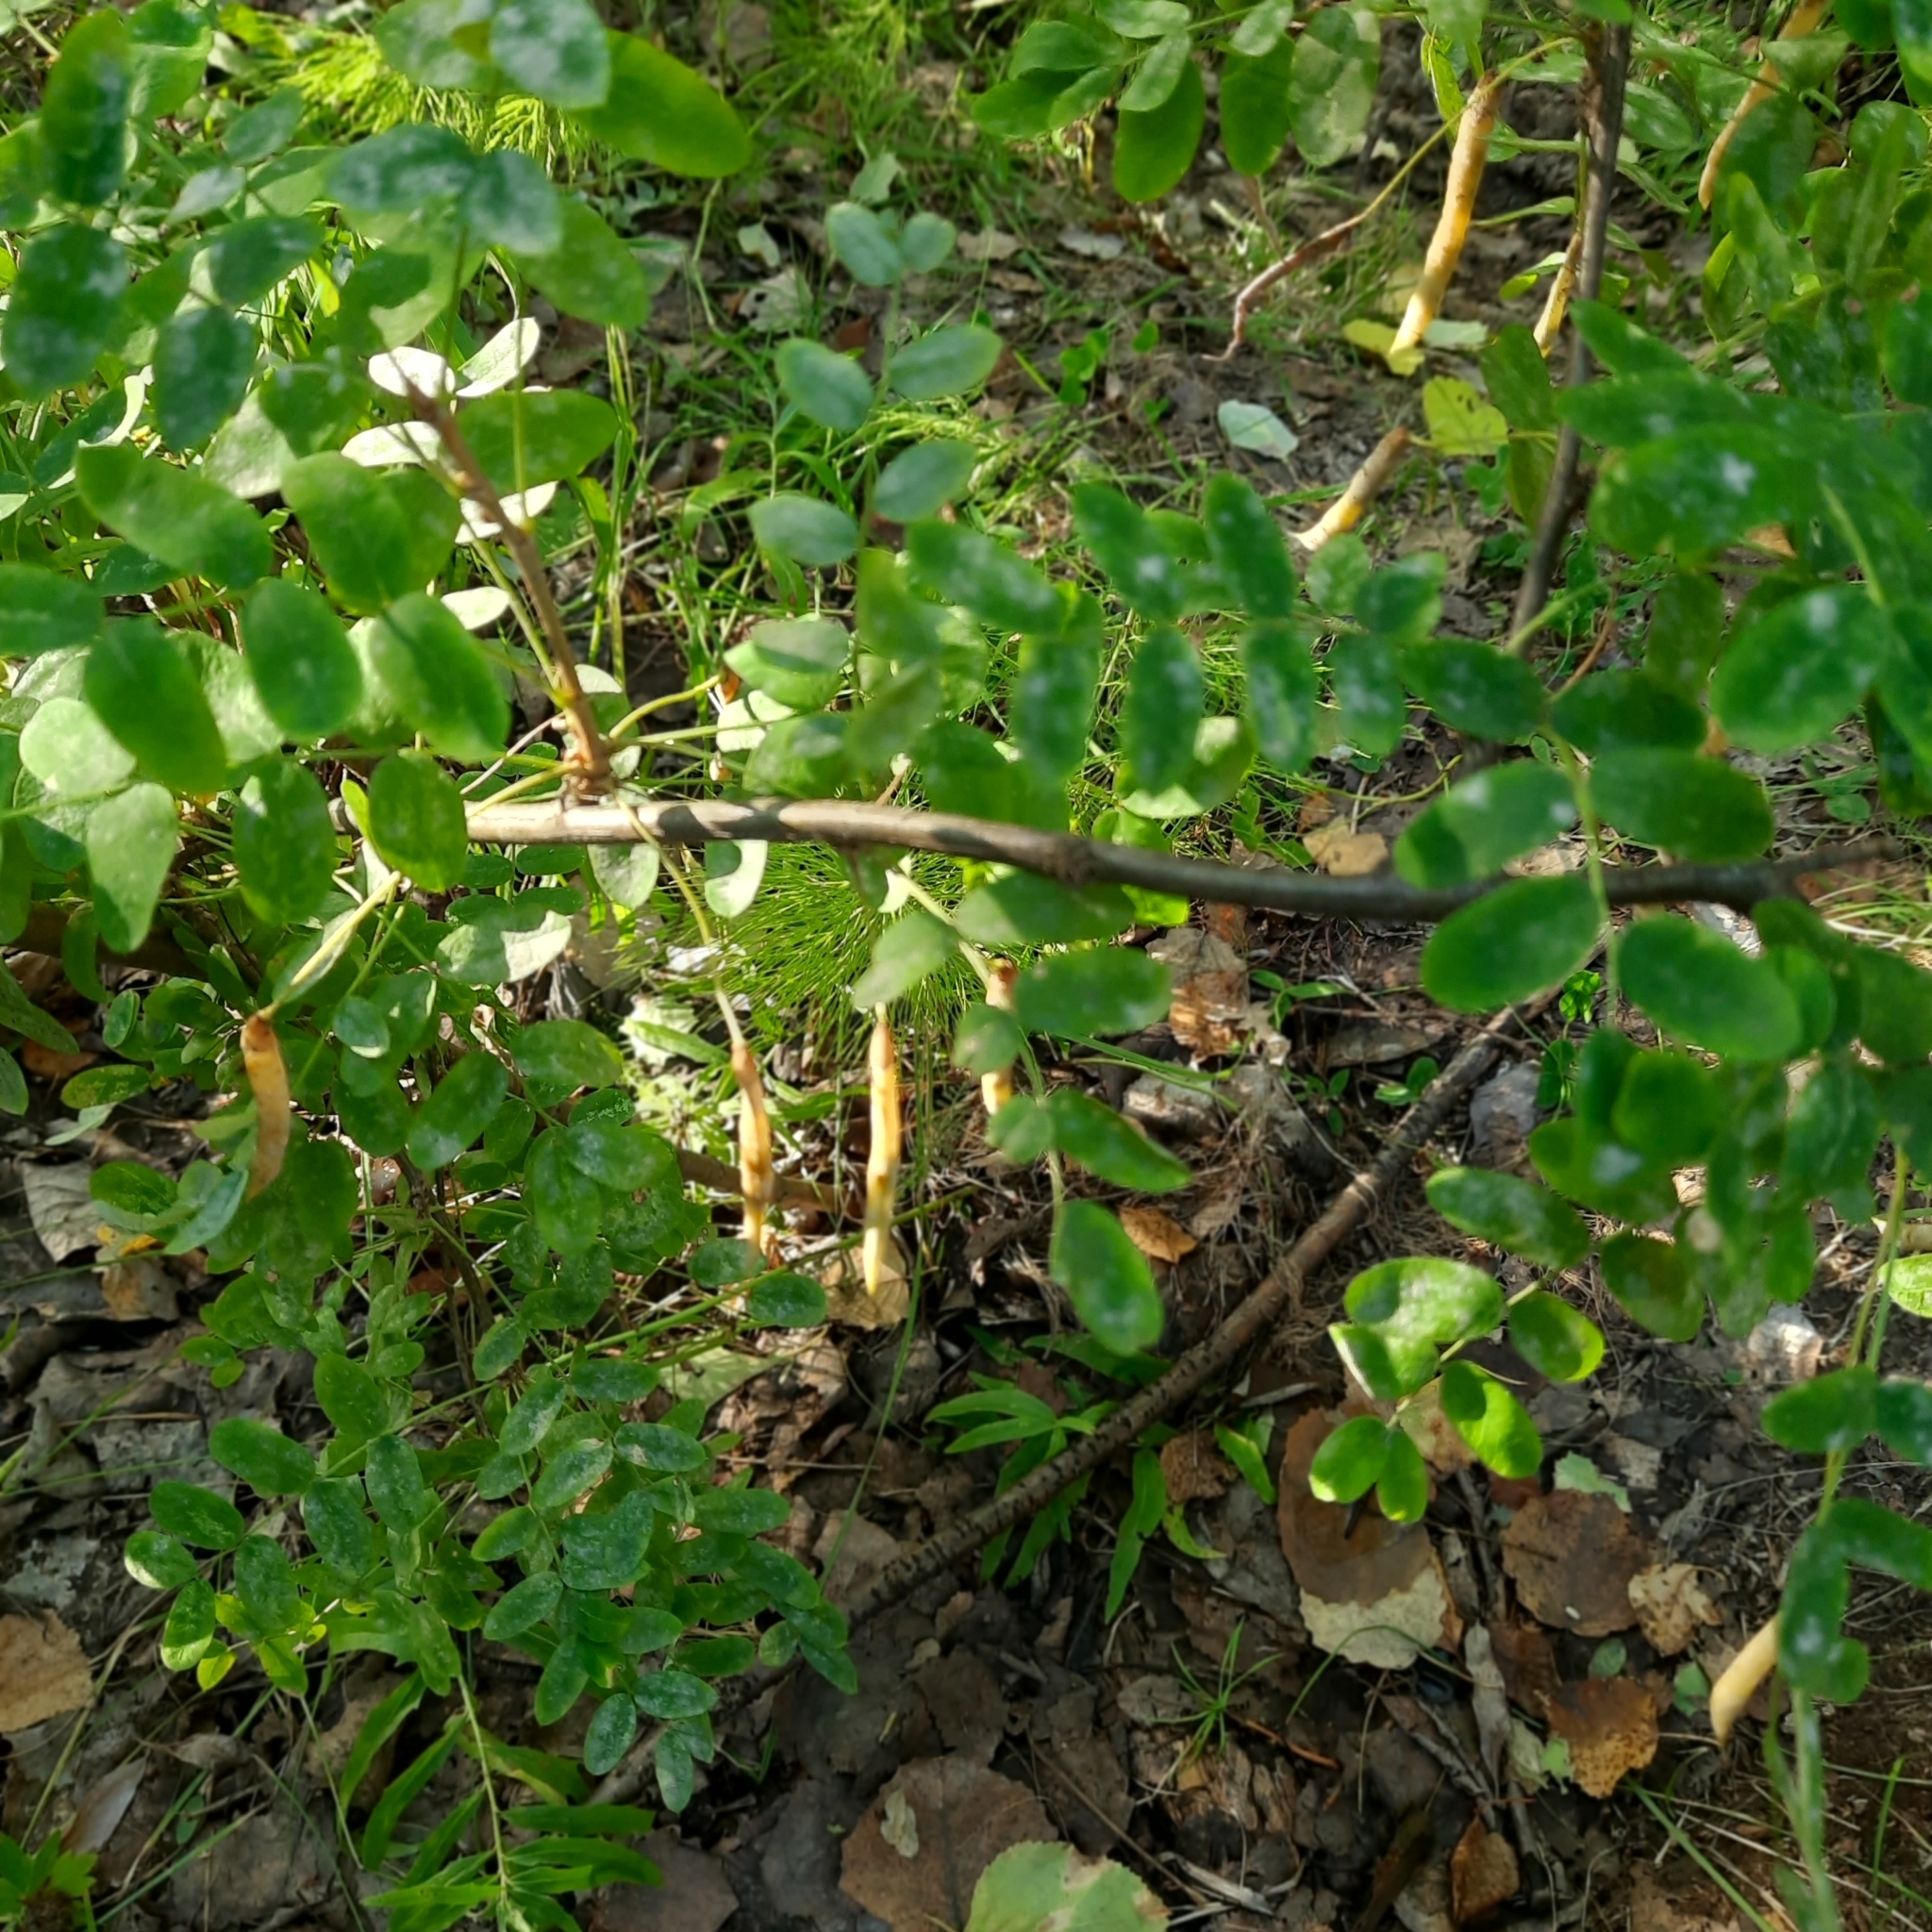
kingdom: Plantae
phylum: Tracheophyta
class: Magnoliopsida
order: Fabales
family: Fabaceae
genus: Caragana
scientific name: Caragana arborescens
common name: Siberian peashrub
